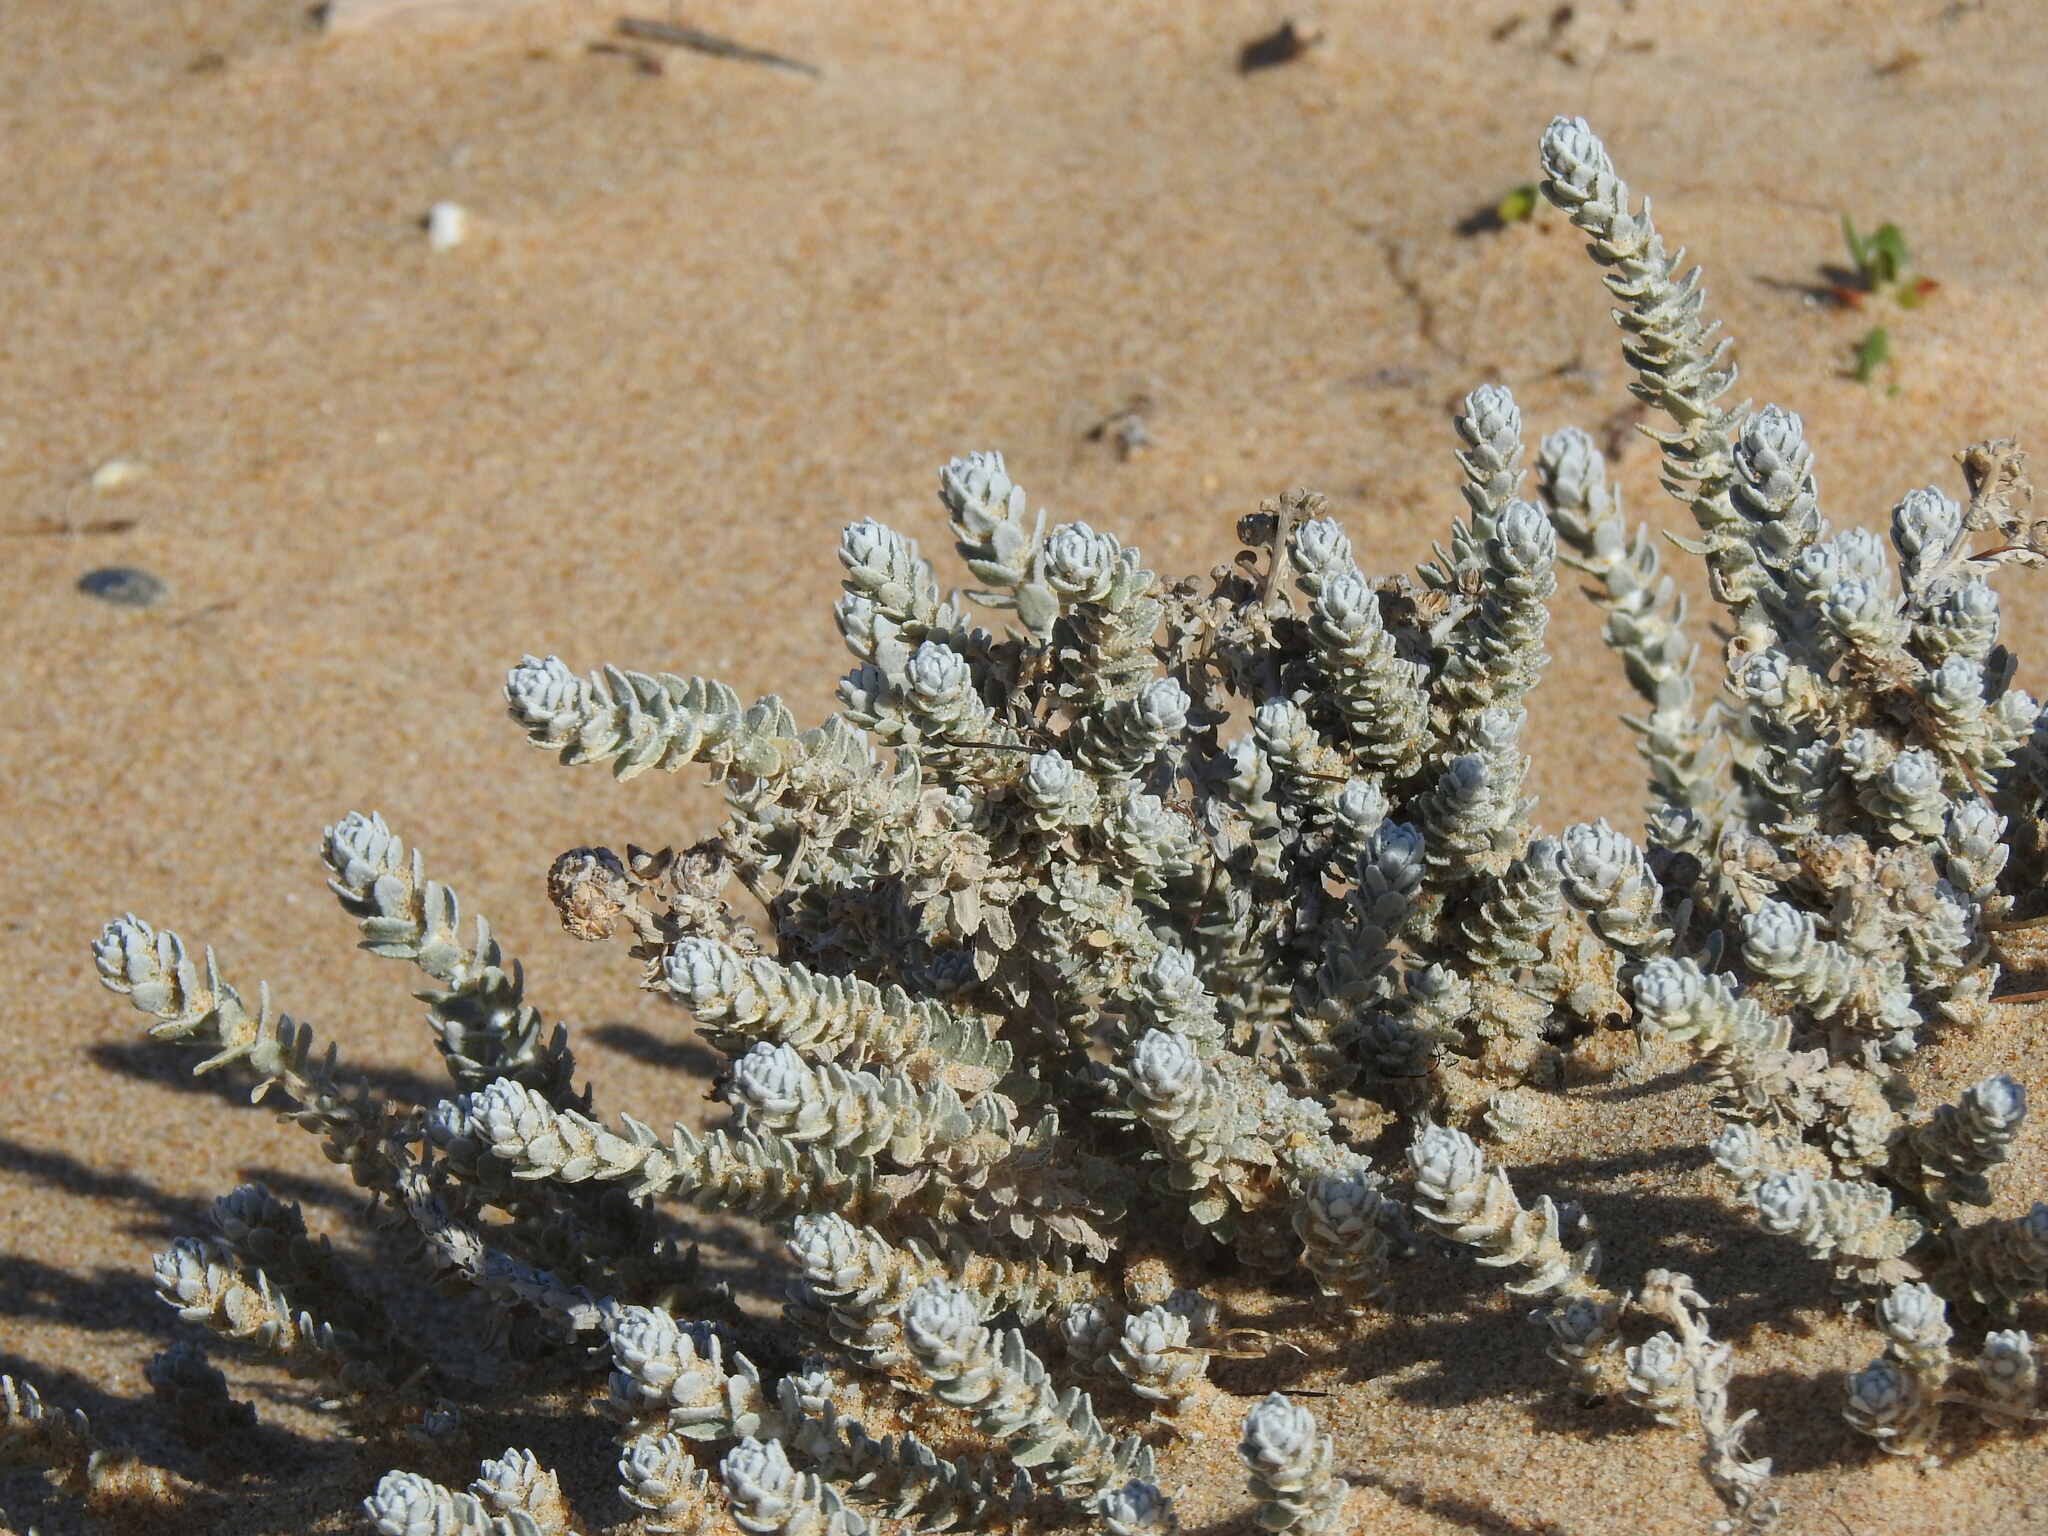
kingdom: Plantae
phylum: Tracheophyta
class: Magnoliopsida
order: Asterales
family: Asteraceae
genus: Achillea
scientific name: Achillea maritima
